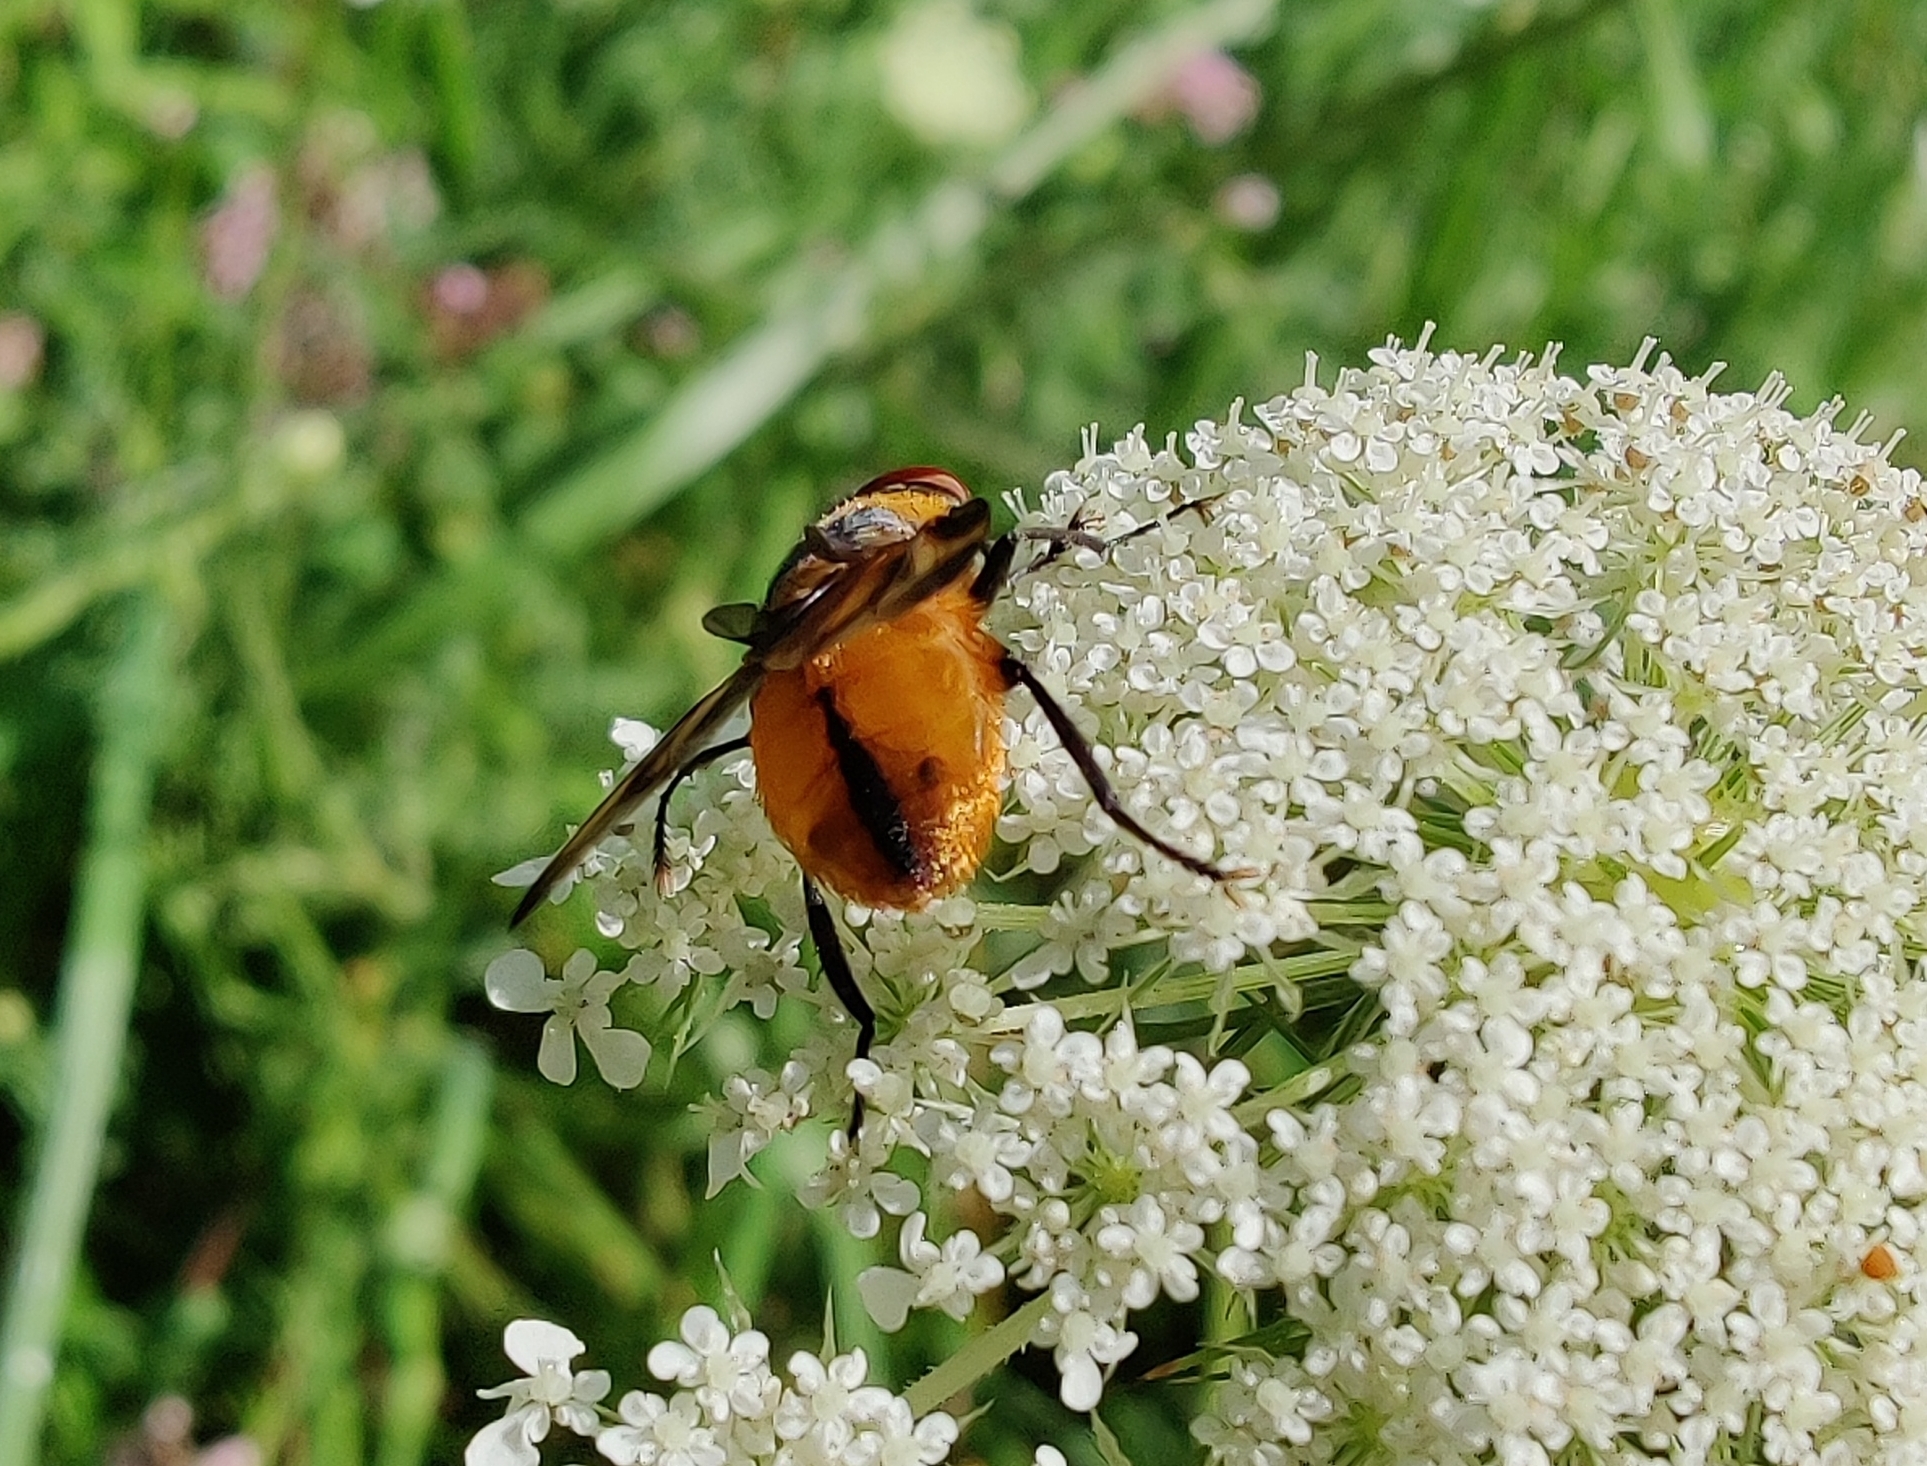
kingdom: Animalia
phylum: Arthropoda
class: Insecta
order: Diptera
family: Tachinidae
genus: Phasia
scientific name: Phasia hemiptera
